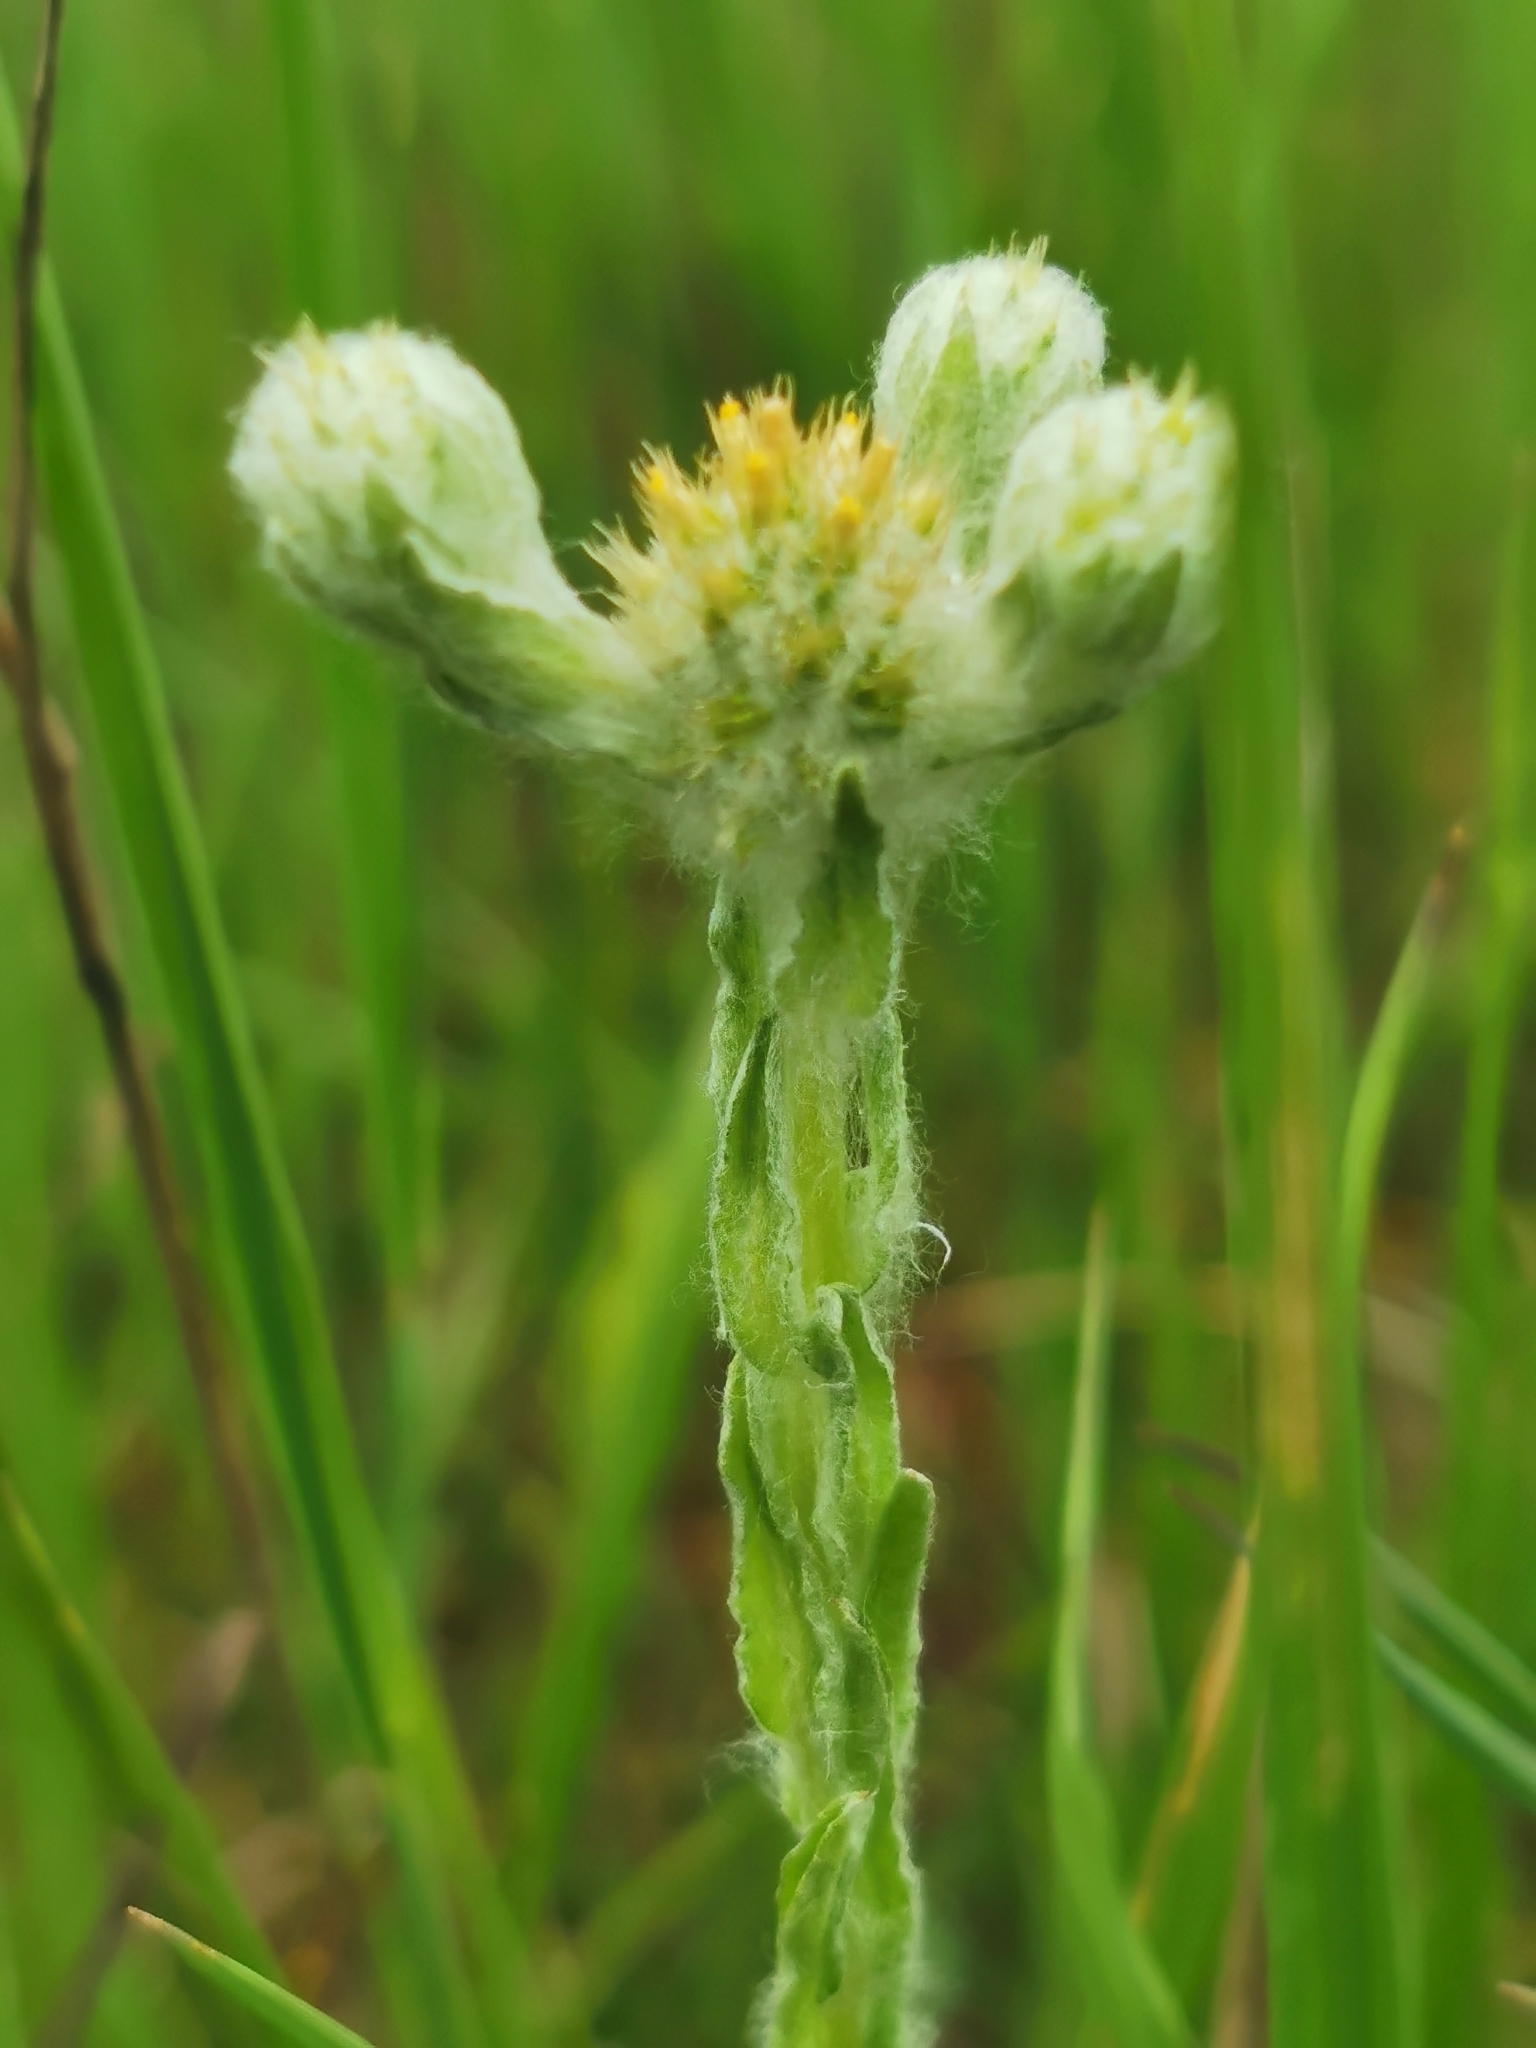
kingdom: Plantae
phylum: Tracheophyta
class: Magnoliopsida
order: Asterales
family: Asteraceae
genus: Filago
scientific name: Filago germanica
